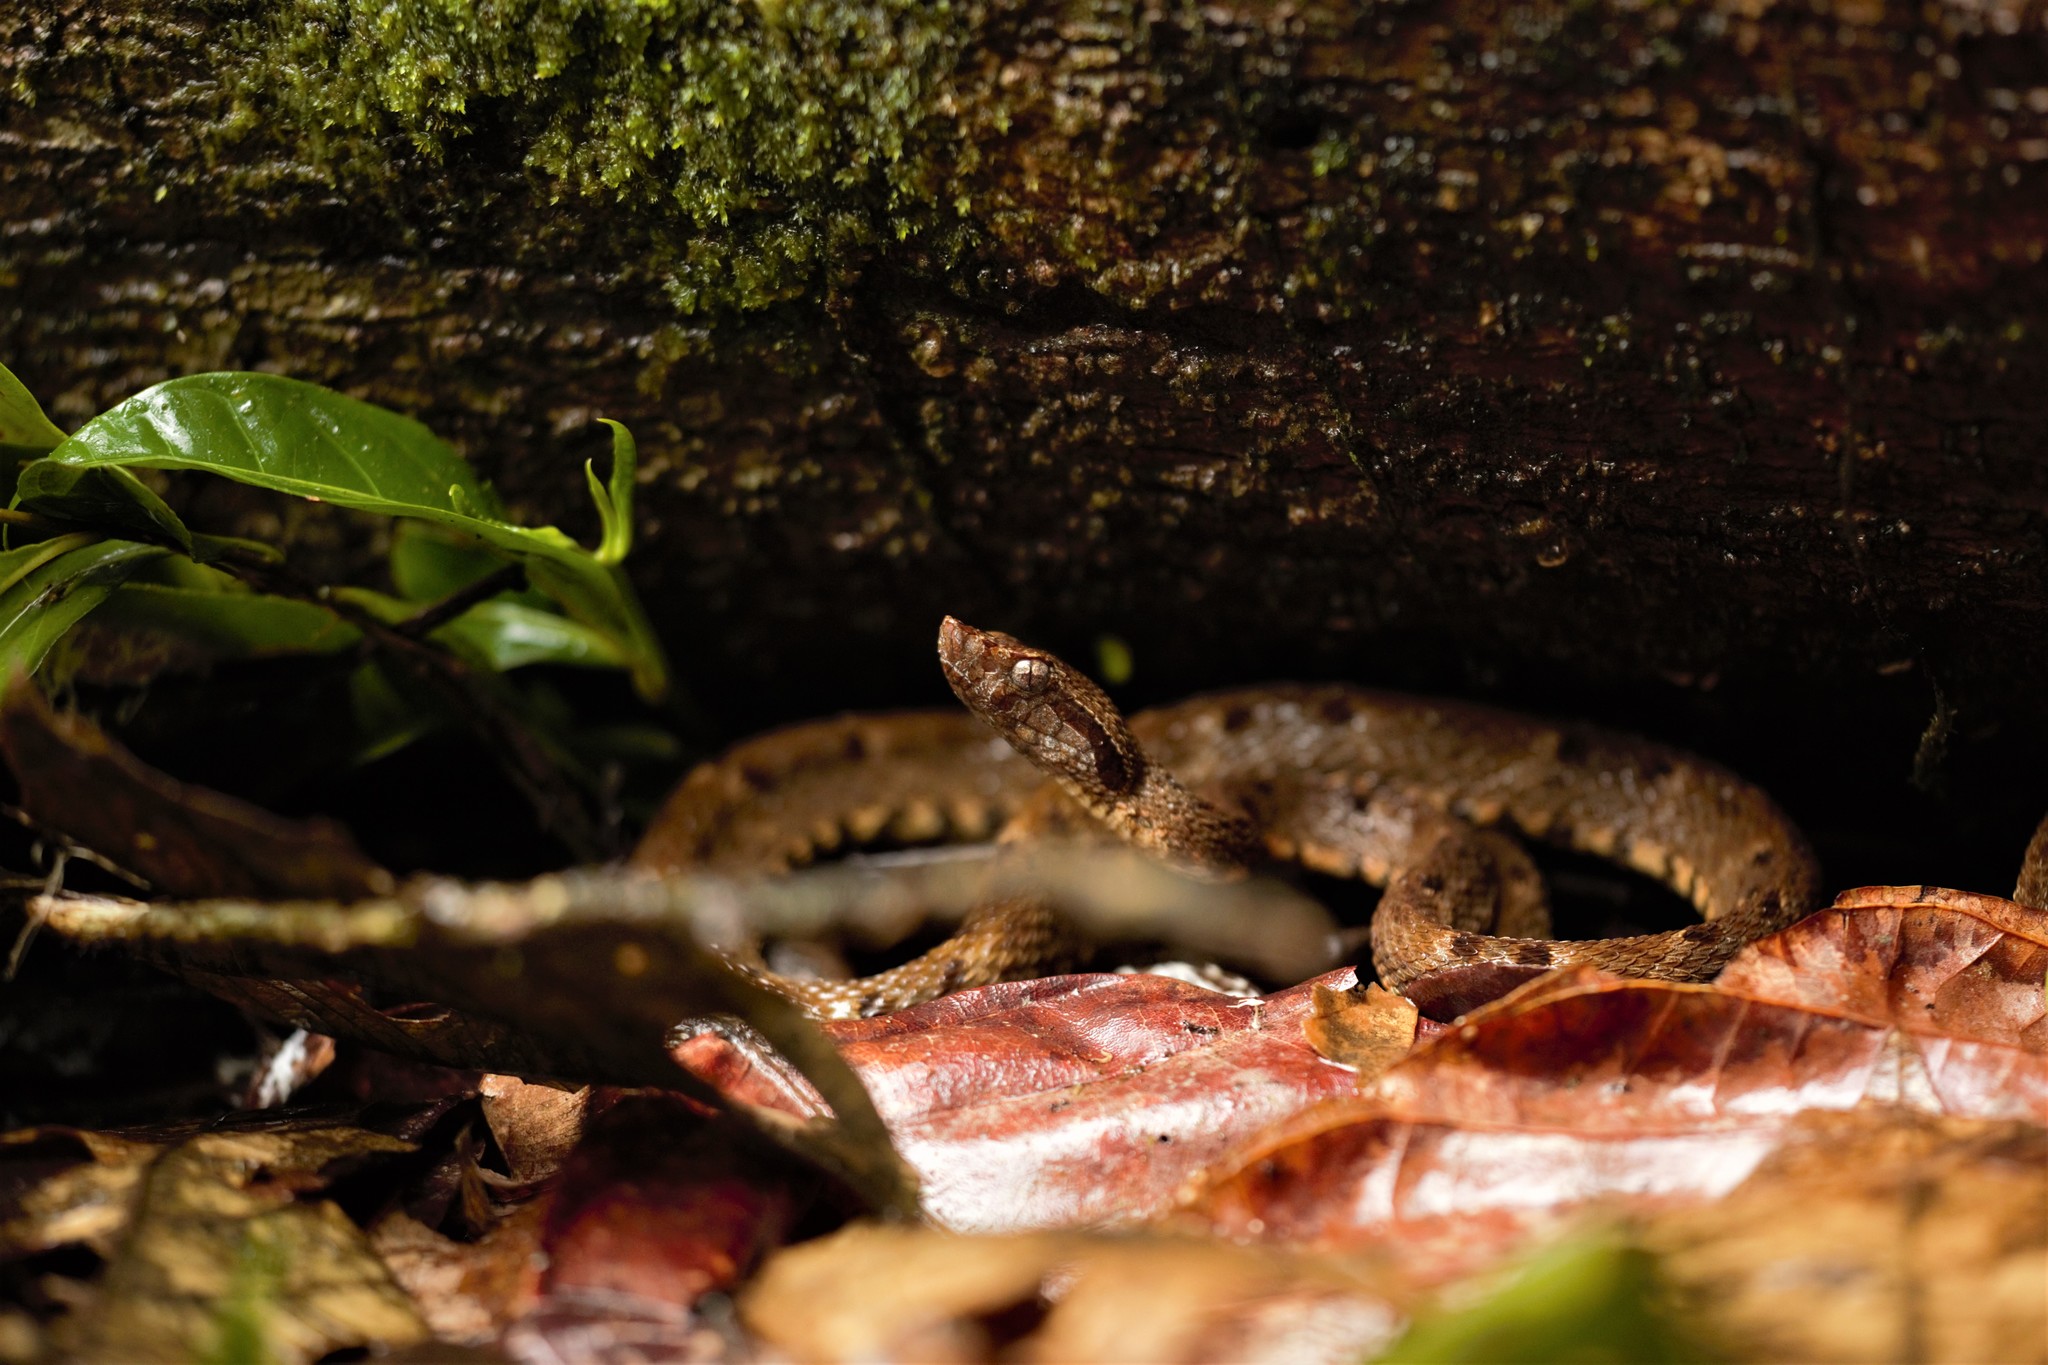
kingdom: Animalia
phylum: Chordata
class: Squamata
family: Viperidae
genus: Bothrops
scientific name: Bothrops atrox
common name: Common lancehead
